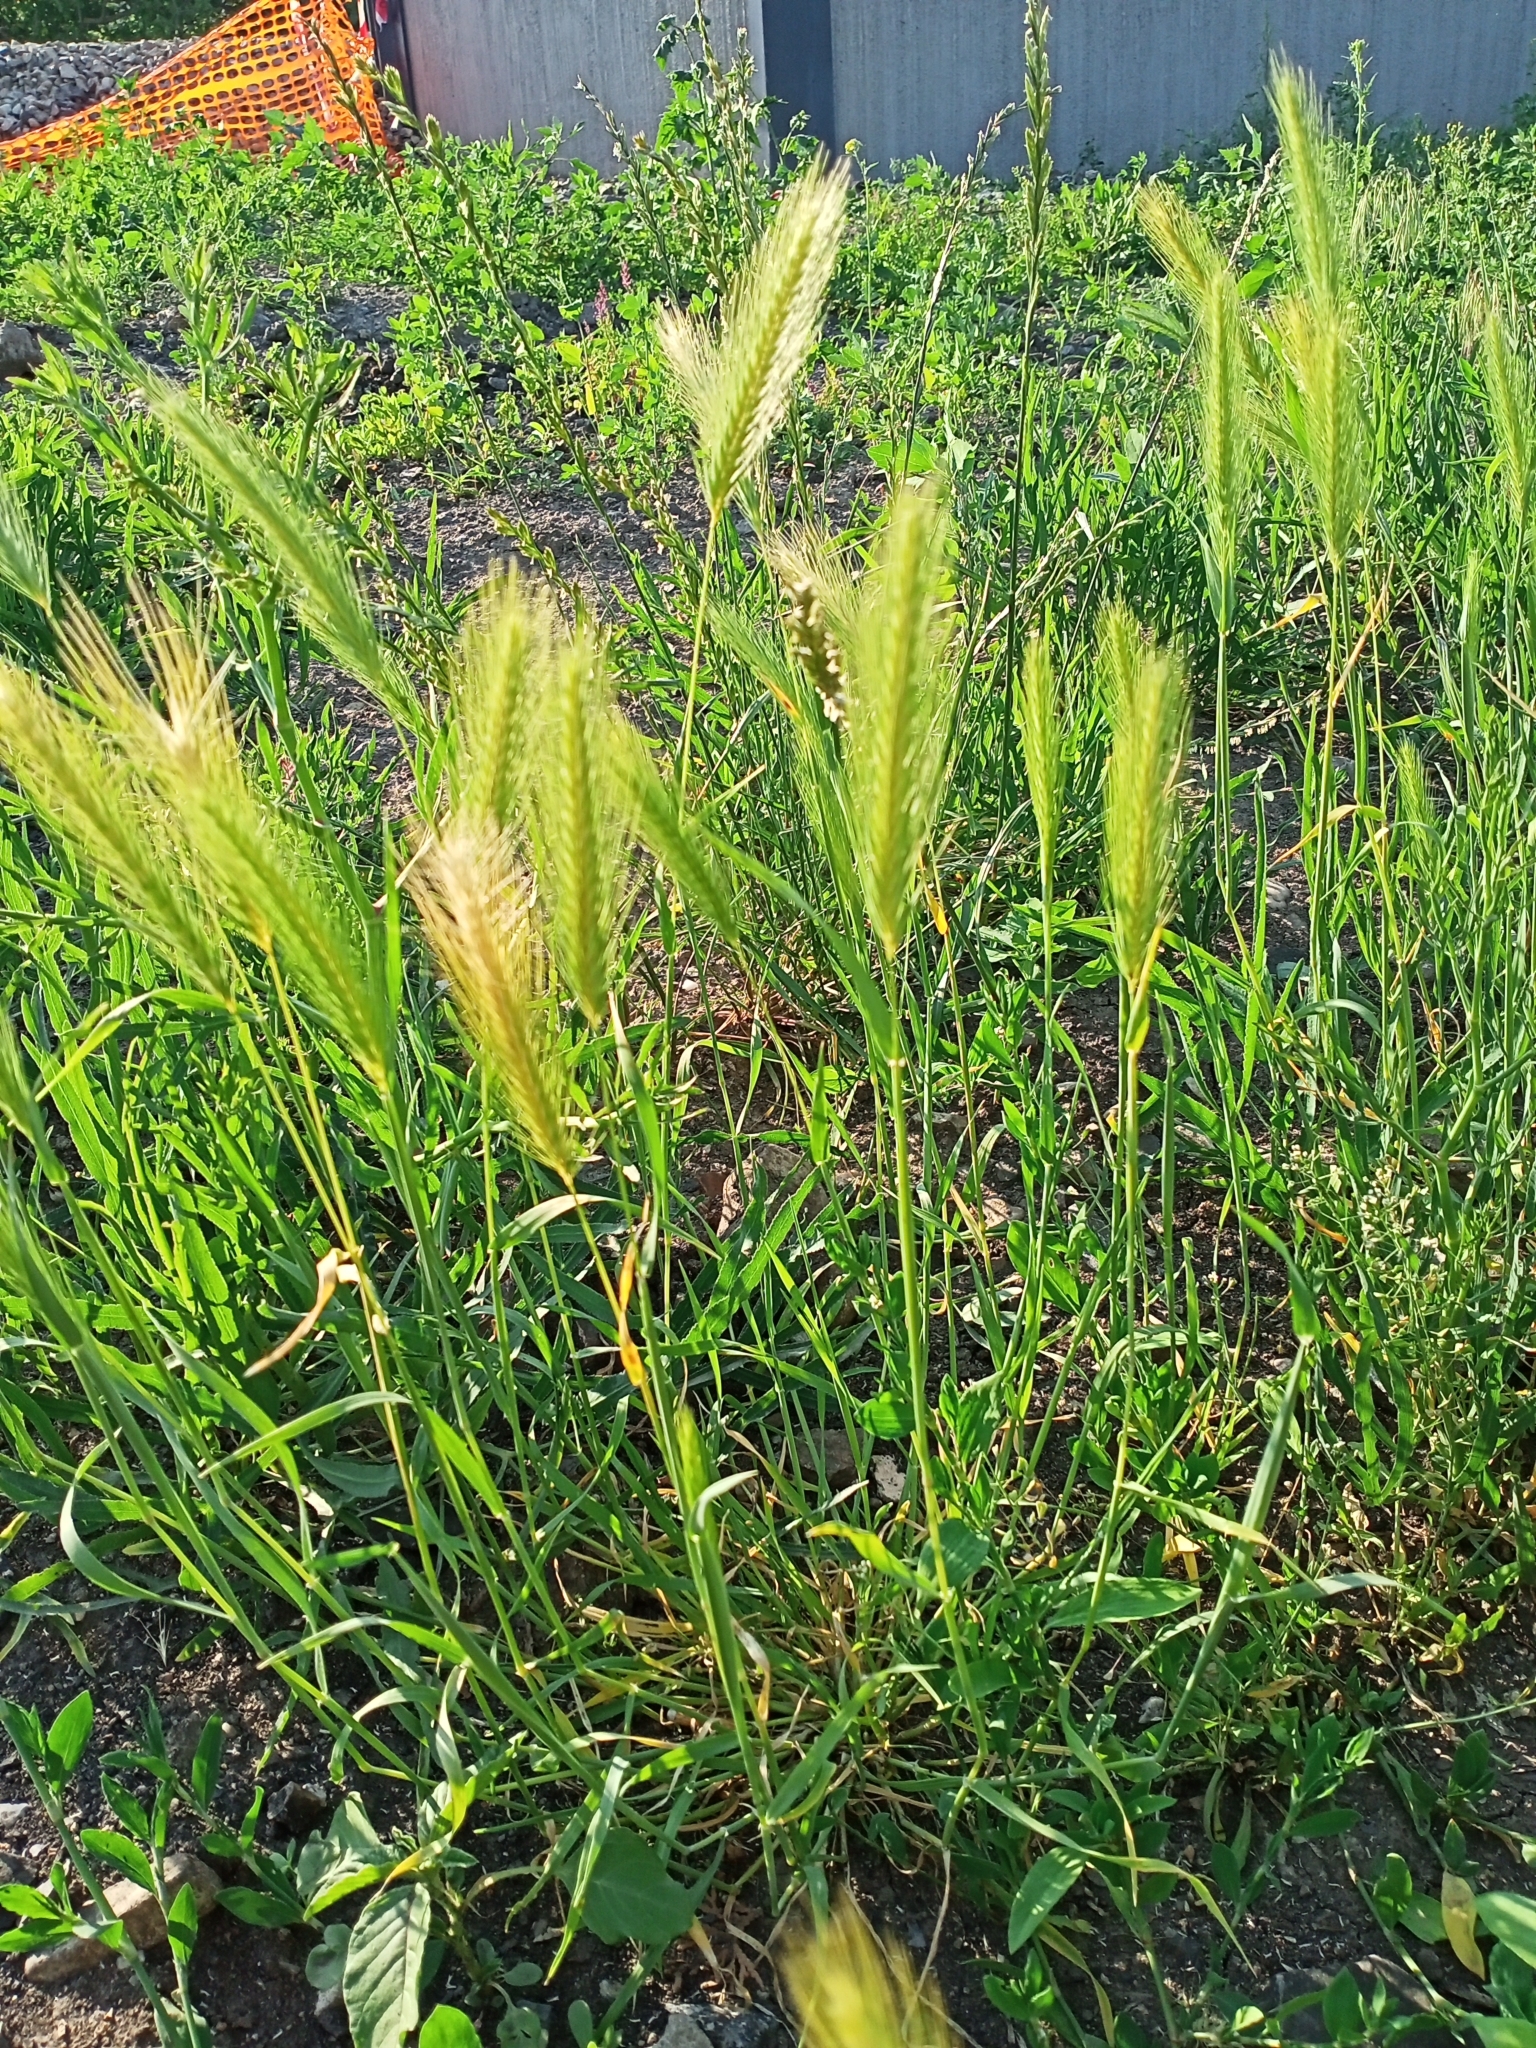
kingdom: Plantae
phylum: Tracheophyta
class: Liliopsida
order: Poales
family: Poaceae
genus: Hordeum
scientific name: Hordeum murinum
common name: Wall barley
